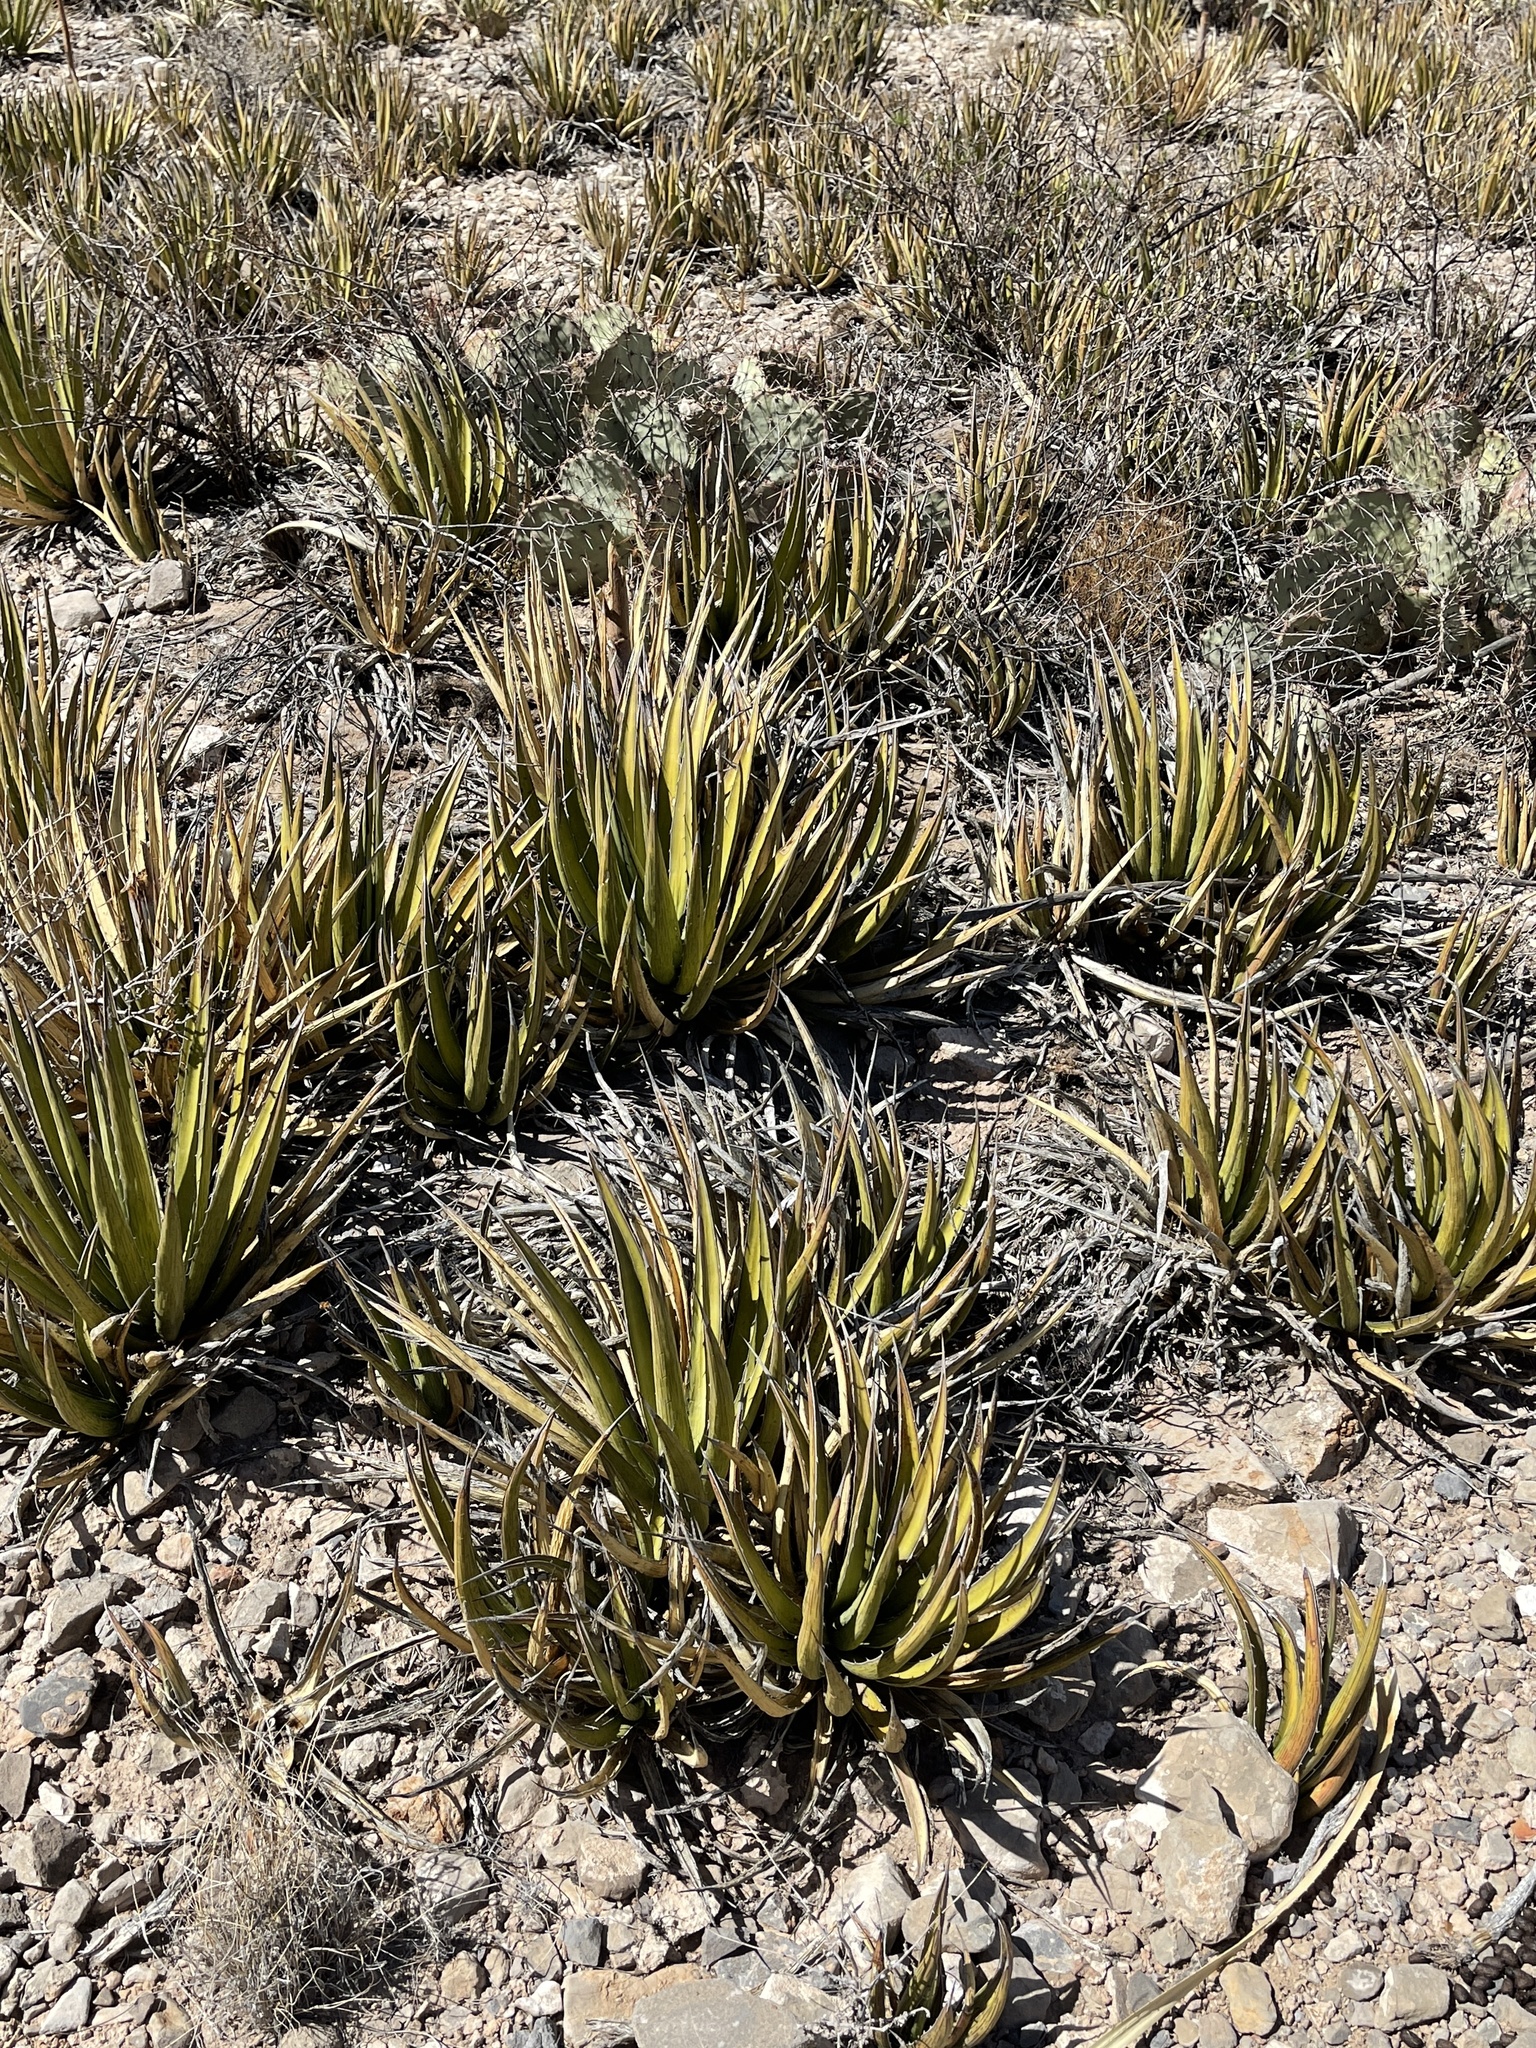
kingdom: Plantae
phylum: Tracheophyta
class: Liliopsida
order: Asparagales
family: Asparagaceae
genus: Agave
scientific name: Agave lechuguilla
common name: Lecheguilla agave
